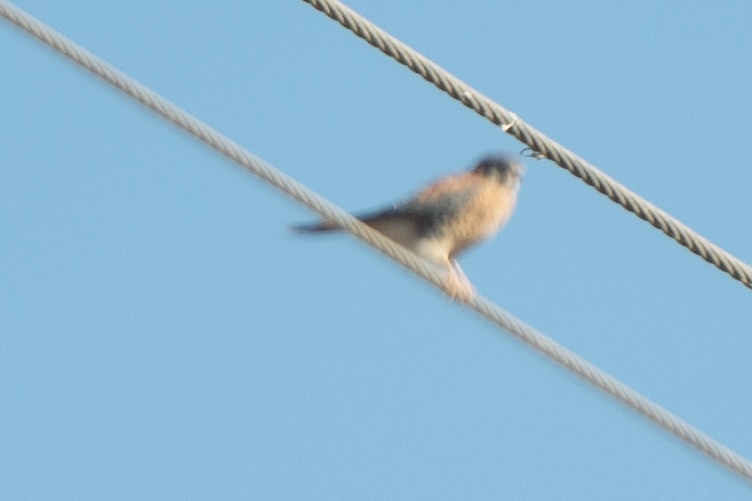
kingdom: Animalia
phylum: Chordata
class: Aves
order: Falconiformes
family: Falconidae
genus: Falco
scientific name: Falco sparverius
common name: American kestrel
